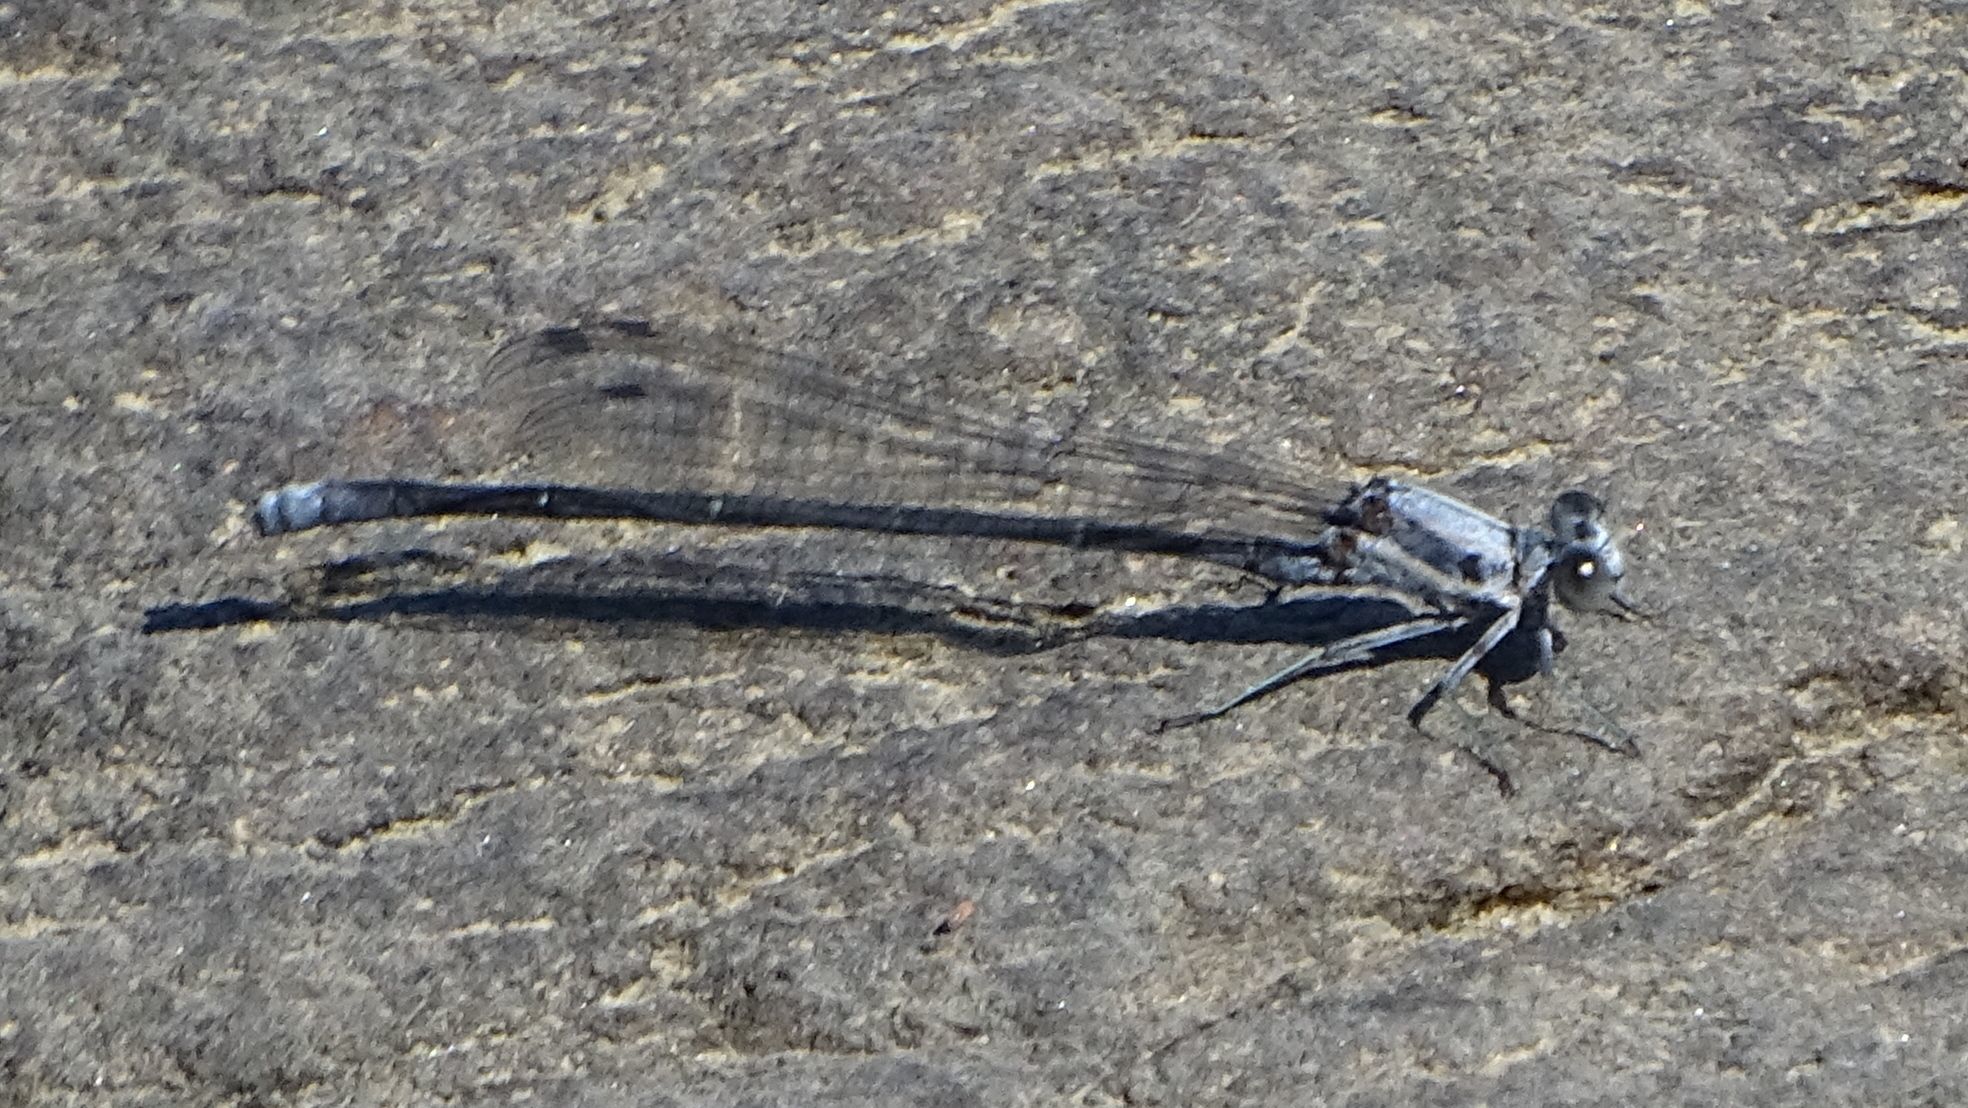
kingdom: Animalia
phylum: Arthropoda
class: Insecta
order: Odonata
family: Coenagrionidae
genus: Argia
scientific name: Argia moesta
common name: Powdered dancer
